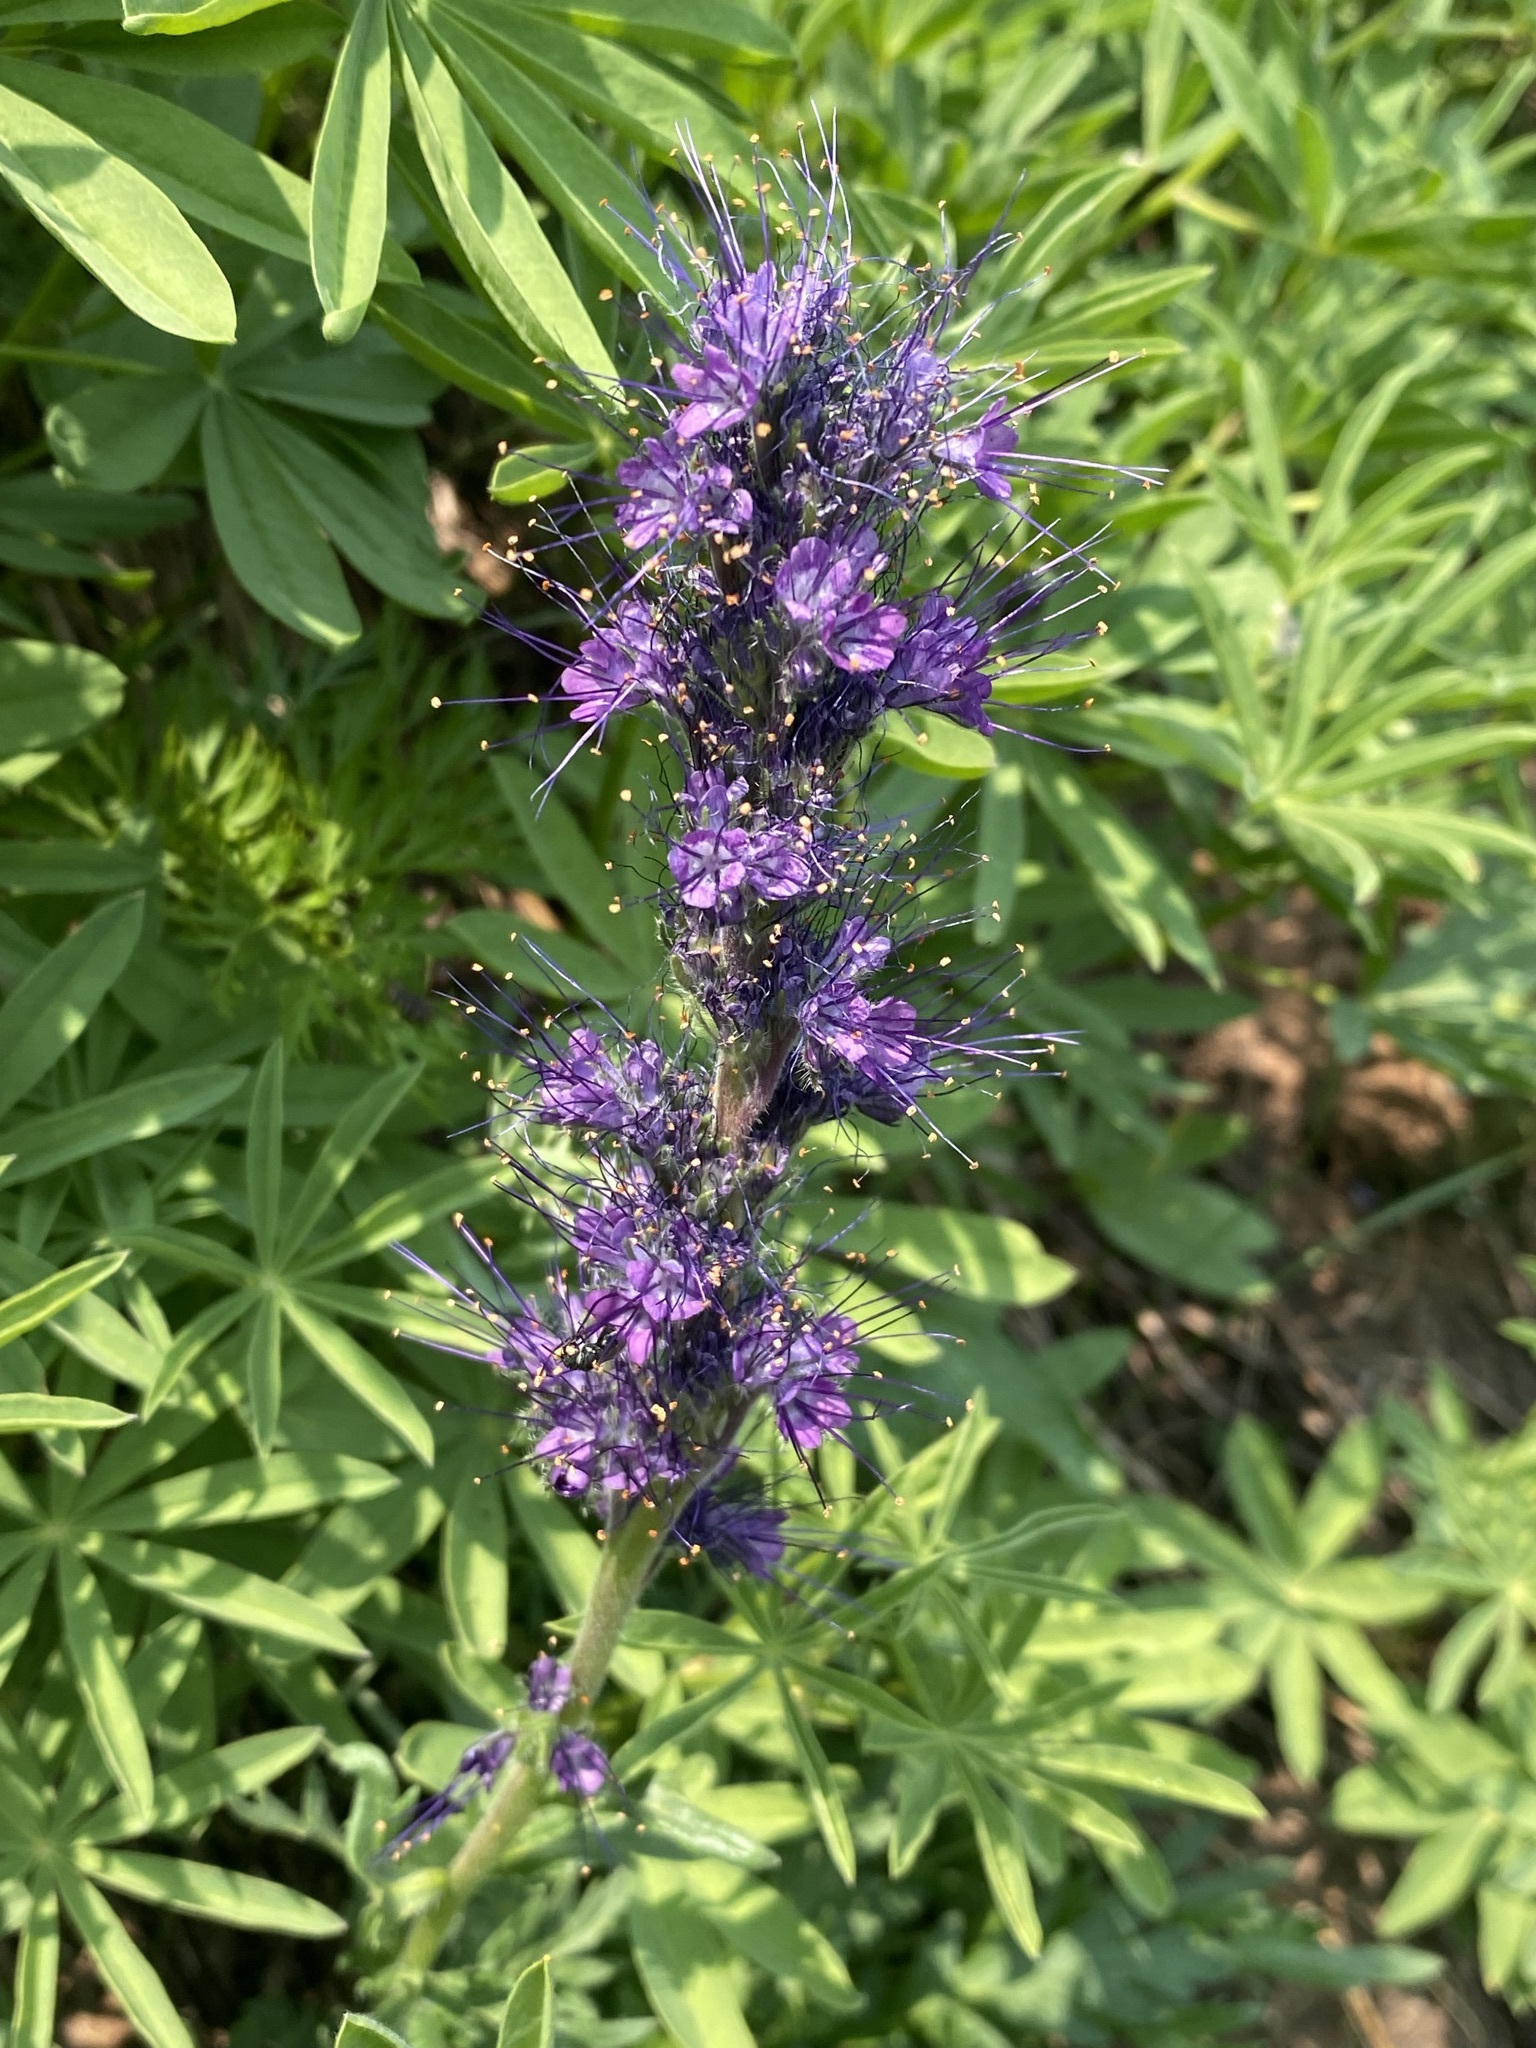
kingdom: Plantae
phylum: Tracheophyta
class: Magnoliopsida
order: Boraginales
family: Hydrophyllaceae
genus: Phacelia
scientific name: Phacelia sericea
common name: Silky phacelia
